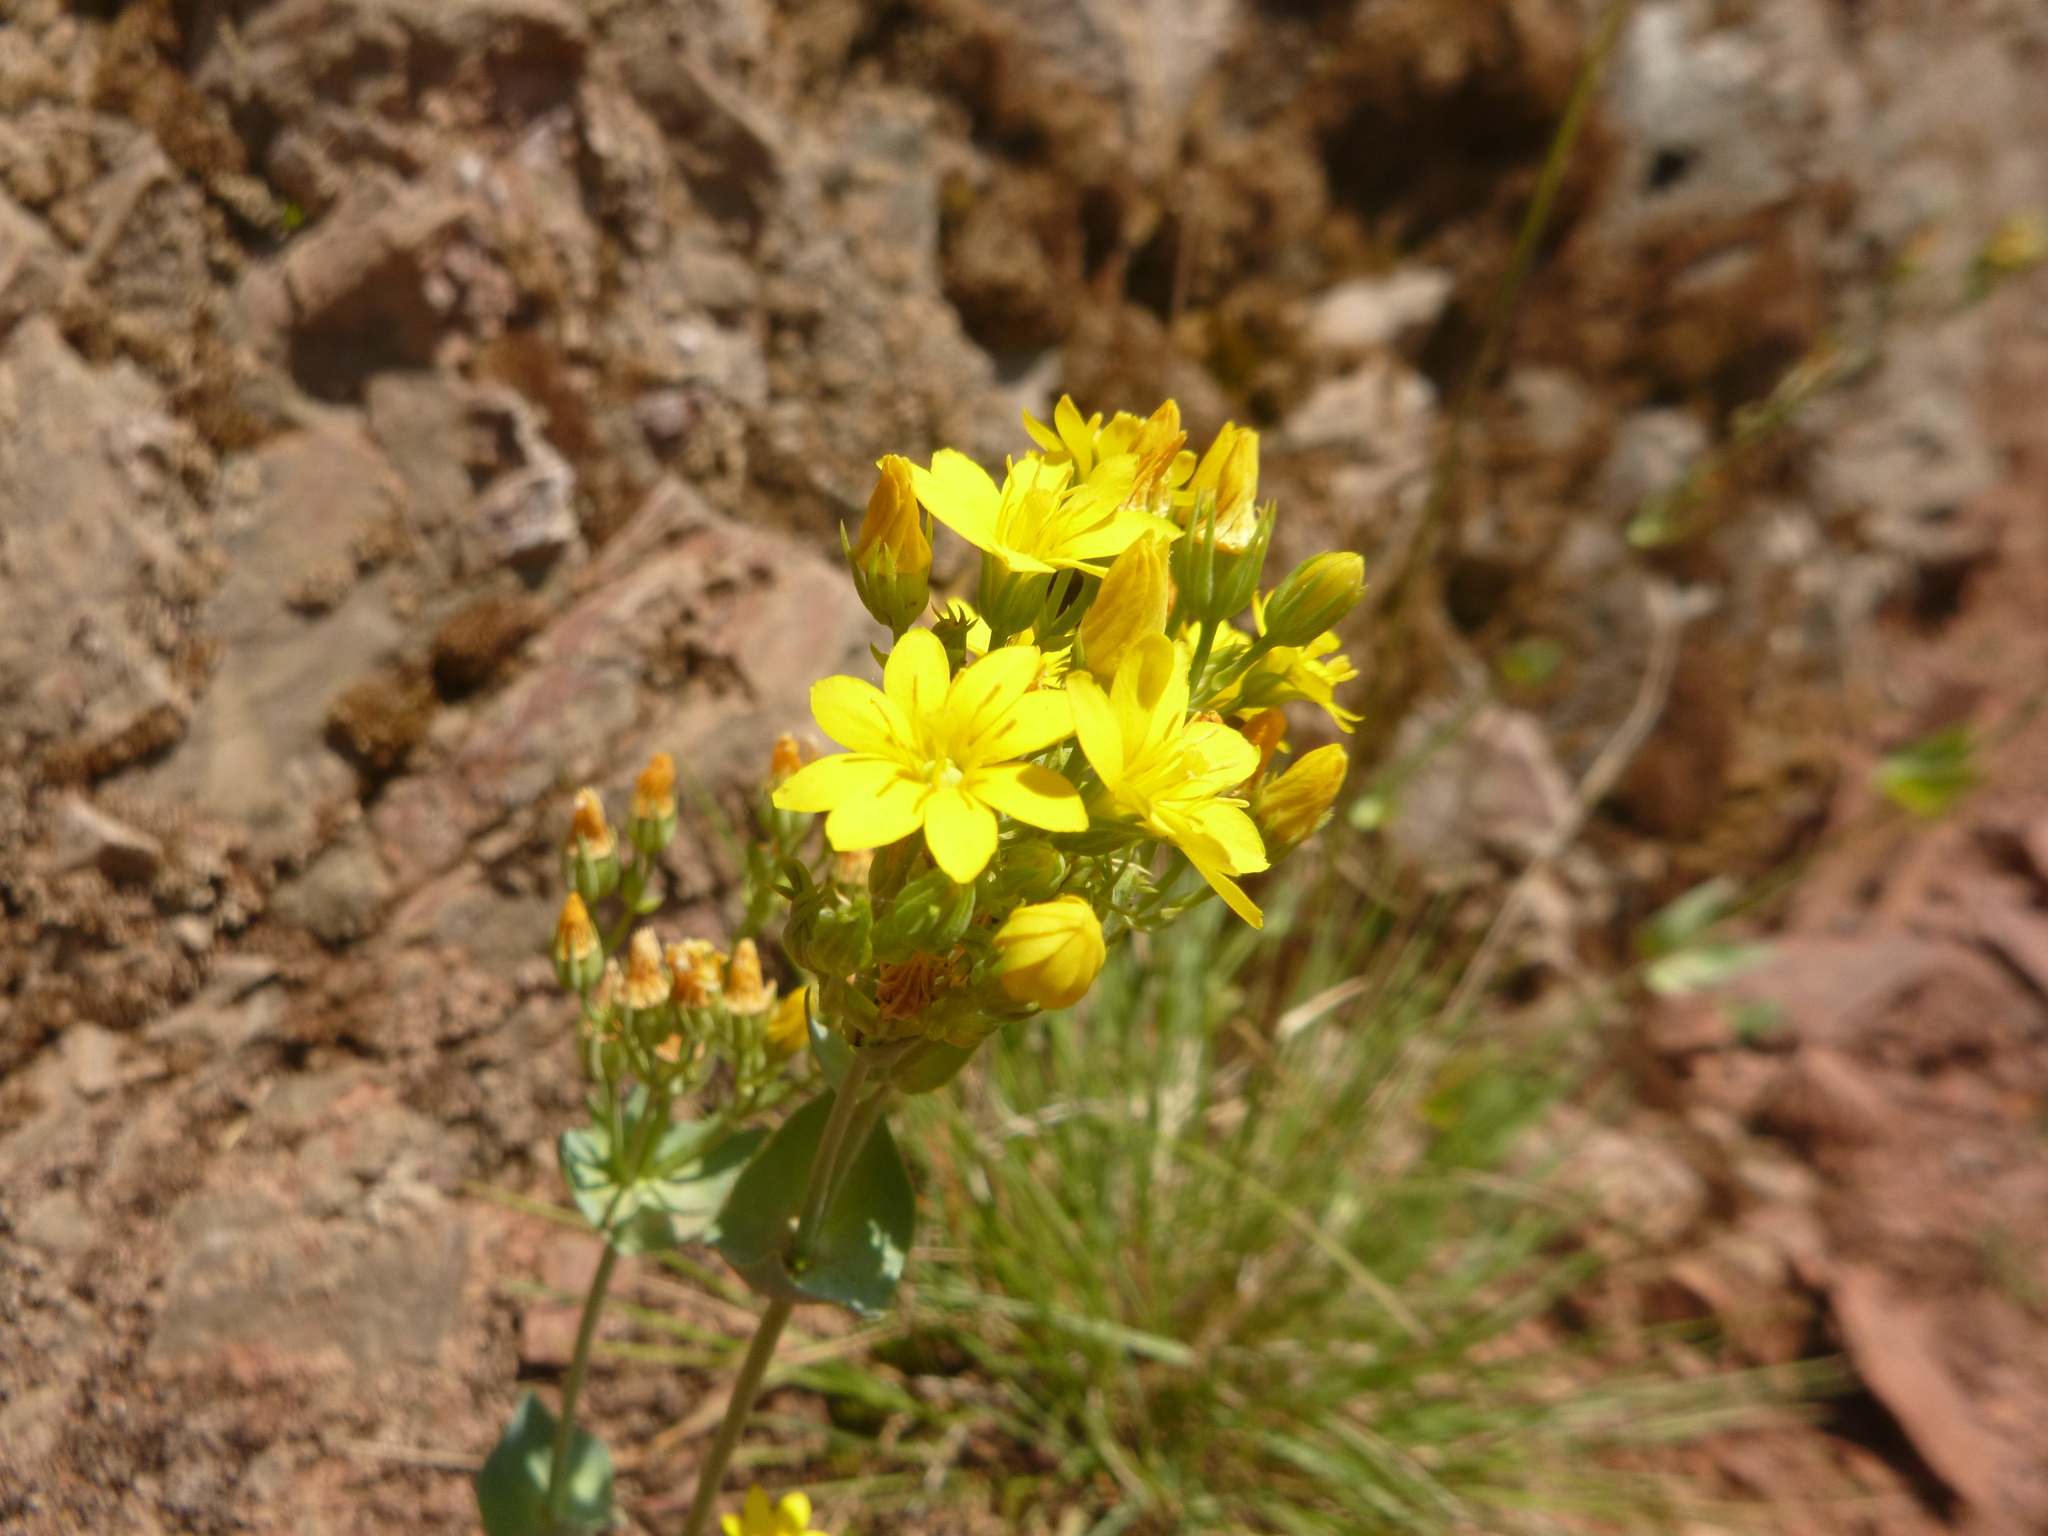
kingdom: Plantae
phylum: Tracheophyta
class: Magnoliopsida
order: Gentianales
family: Gentianaceae
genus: Blackstonia
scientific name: Blackstonia perfoliata
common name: Yellow-wort
